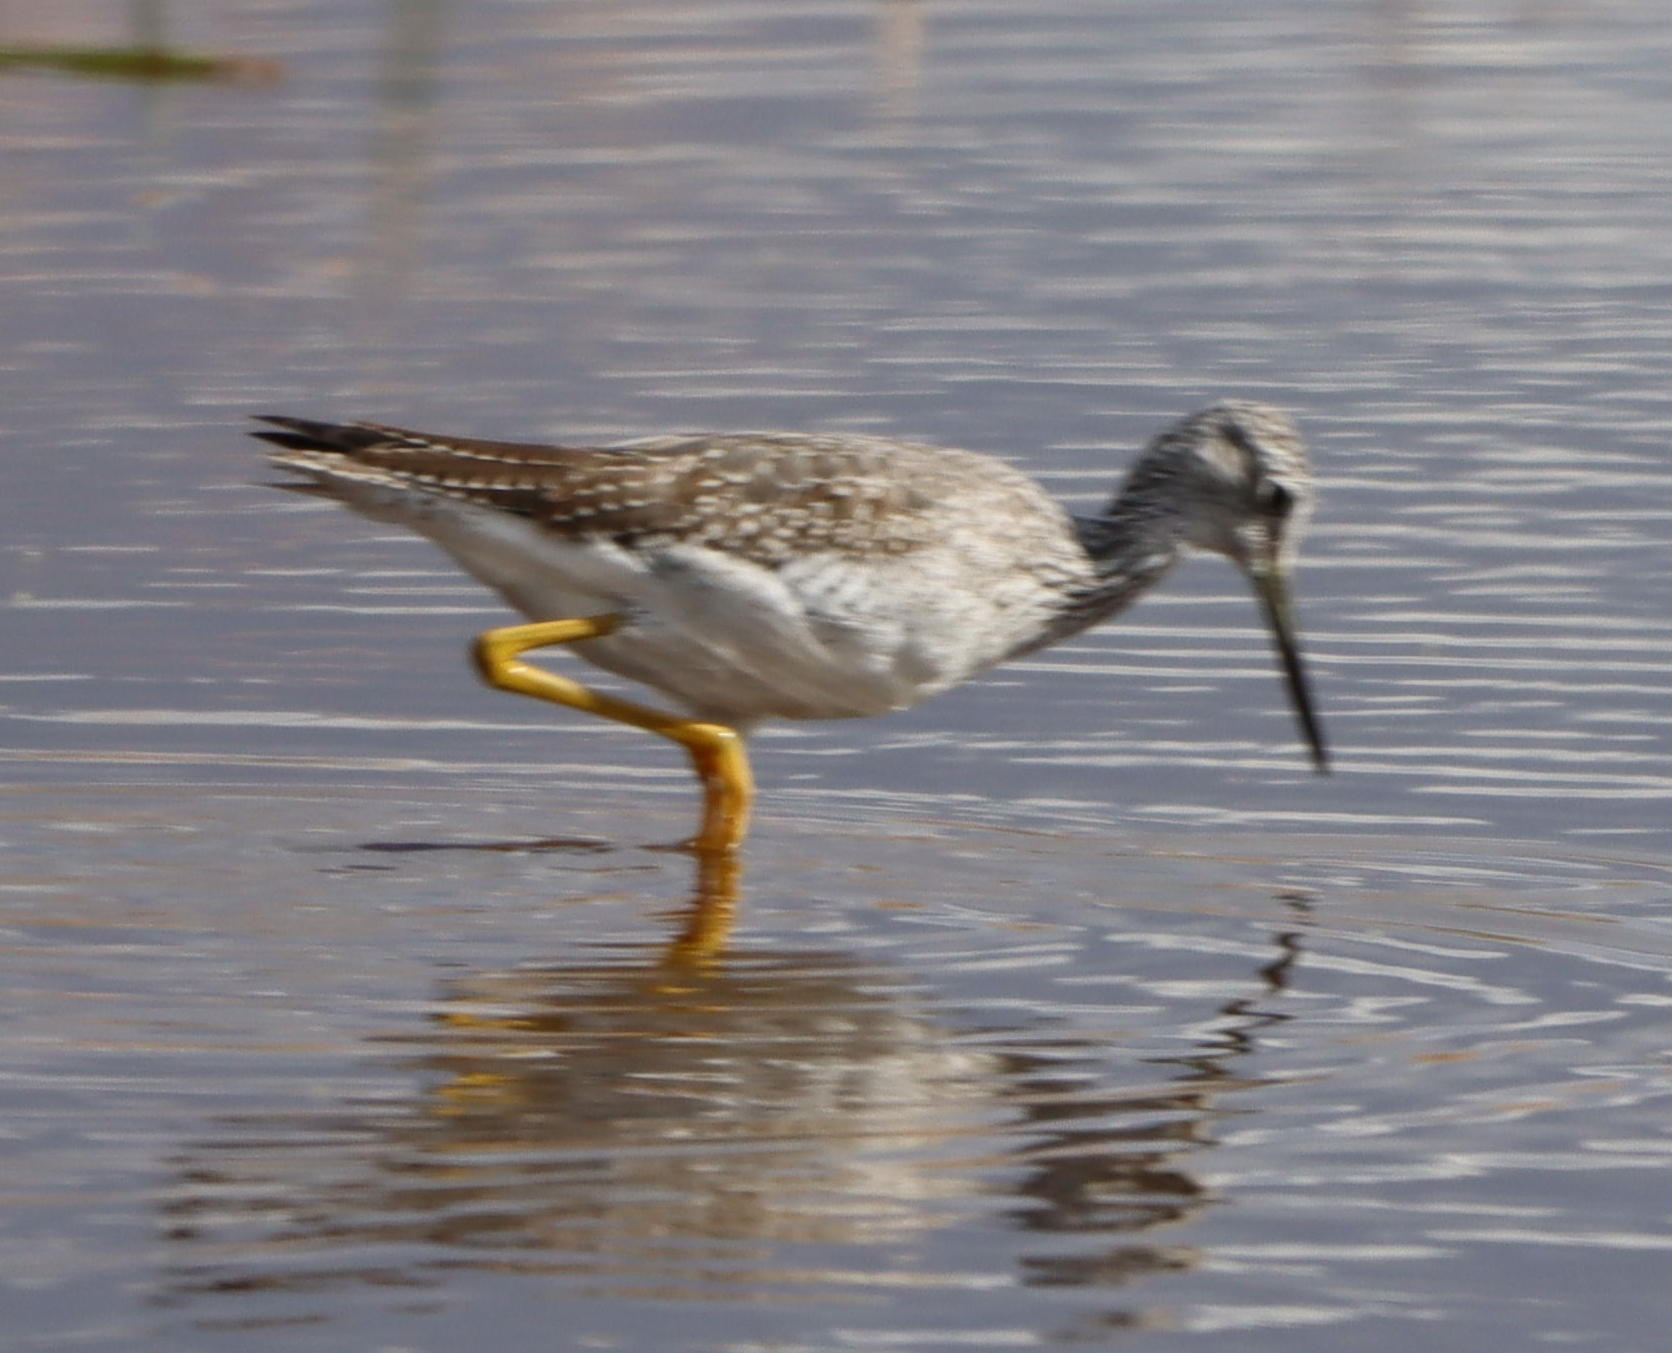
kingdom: Animalia
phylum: Chordata
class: Aves
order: Charadriiformes
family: Scolopacidae
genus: Tringa
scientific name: Tringa melanoleuca
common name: Greater yellowlegs
